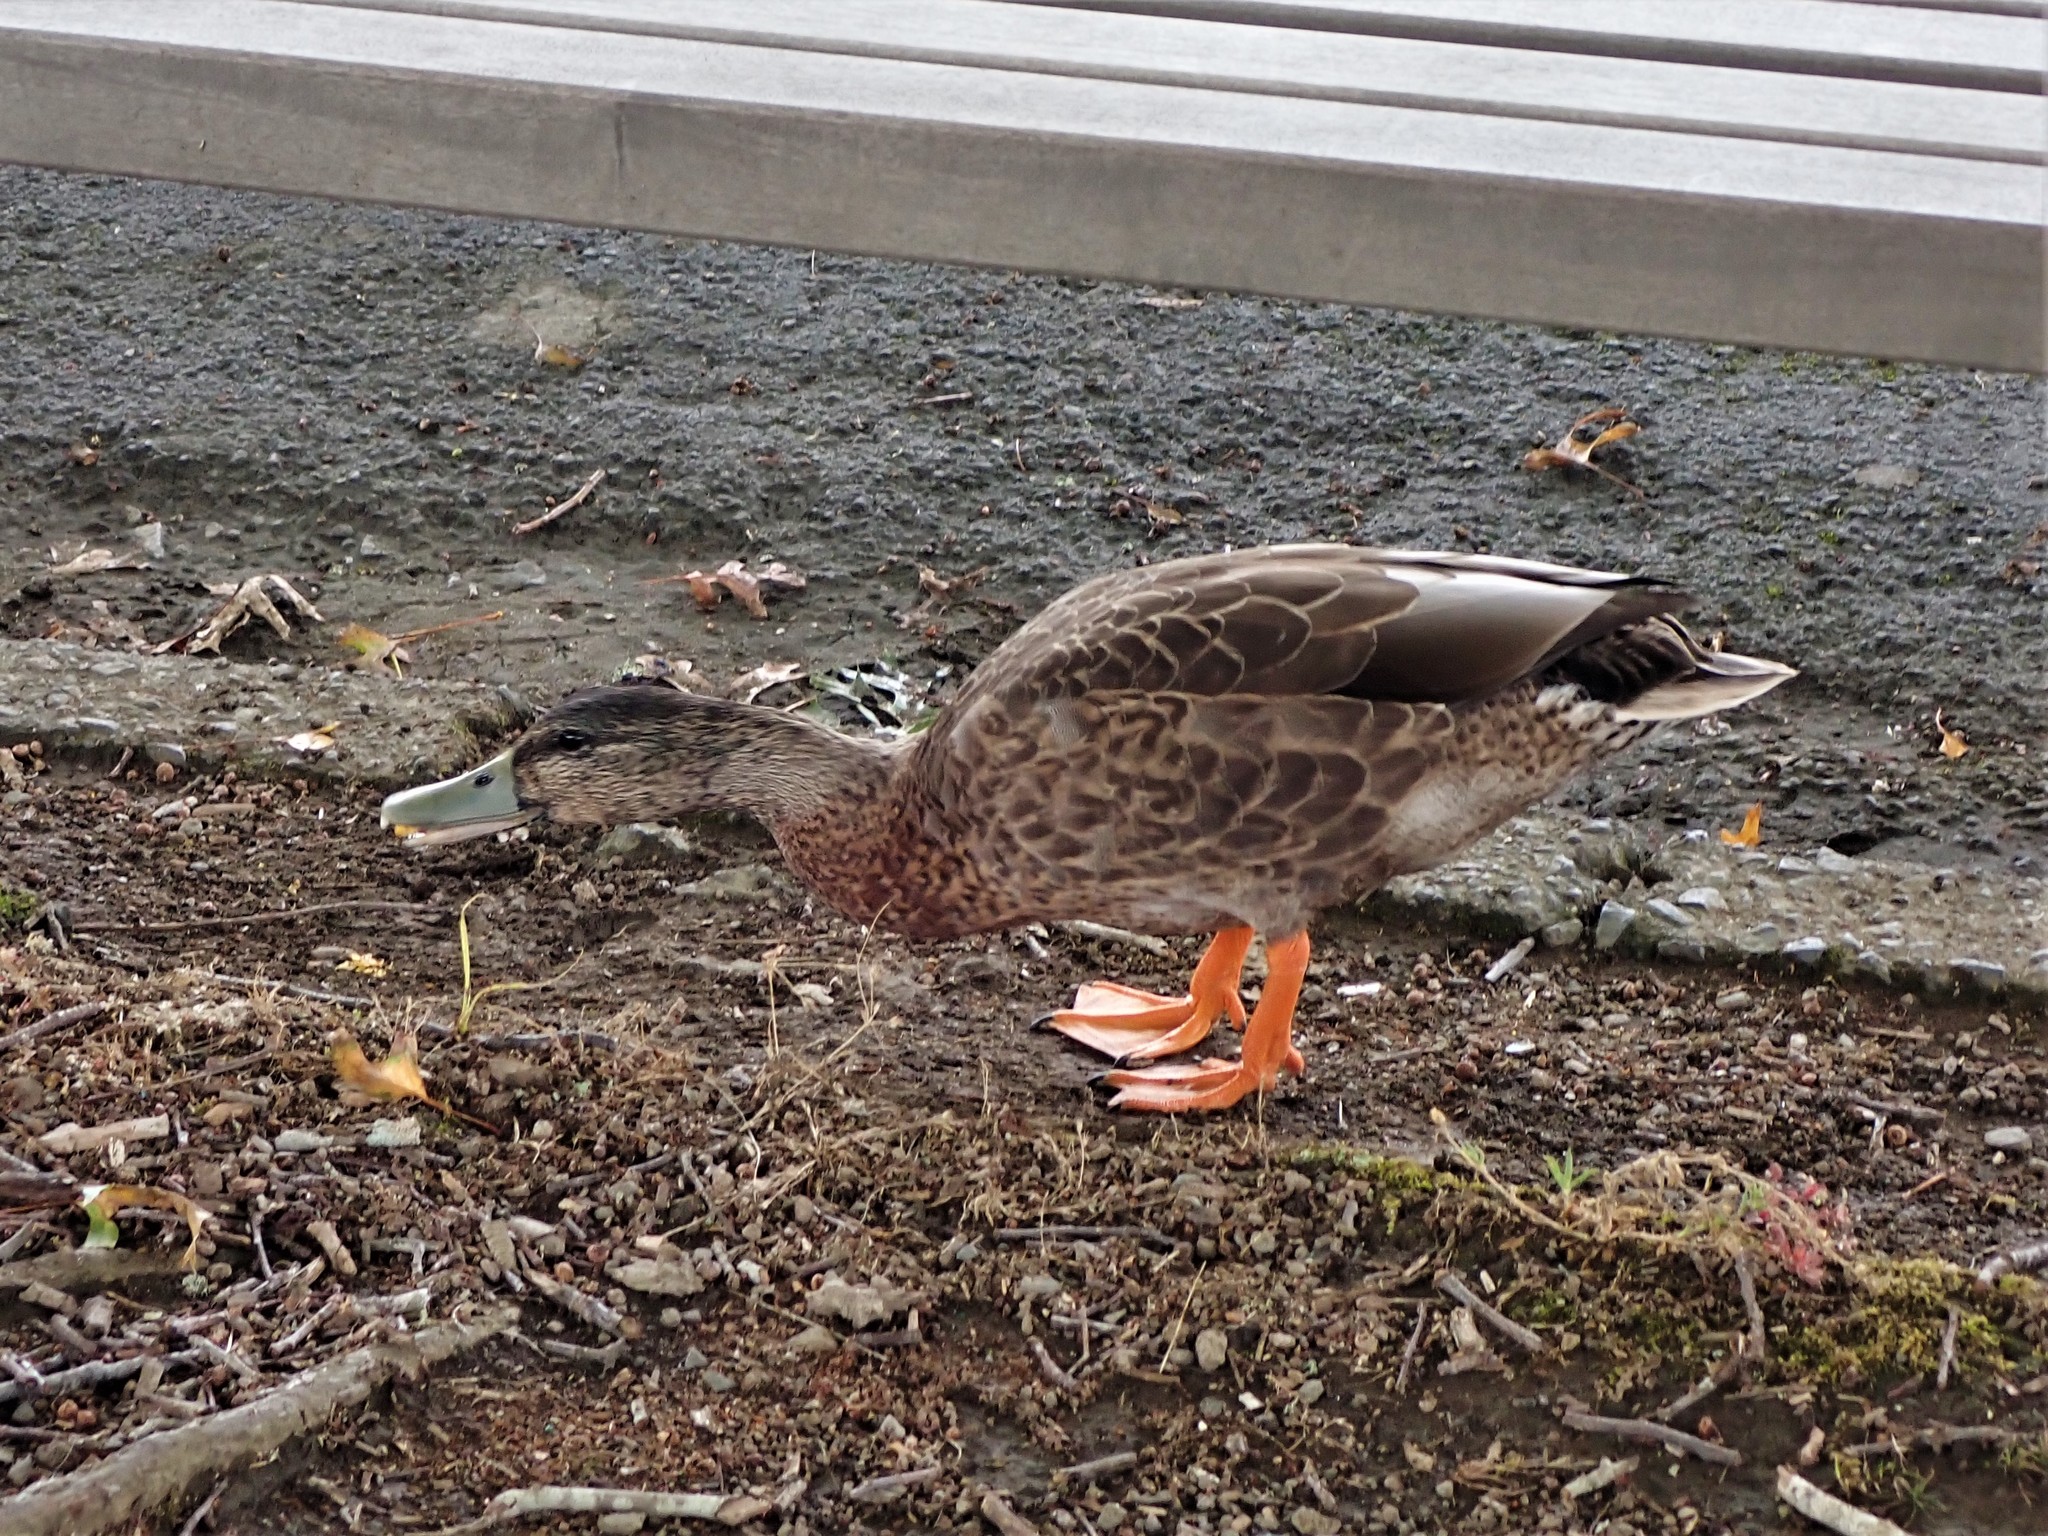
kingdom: Animalia
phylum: Chordata
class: Aves
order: Anseriformes
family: Anatidae
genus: Anas
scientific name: Anas
